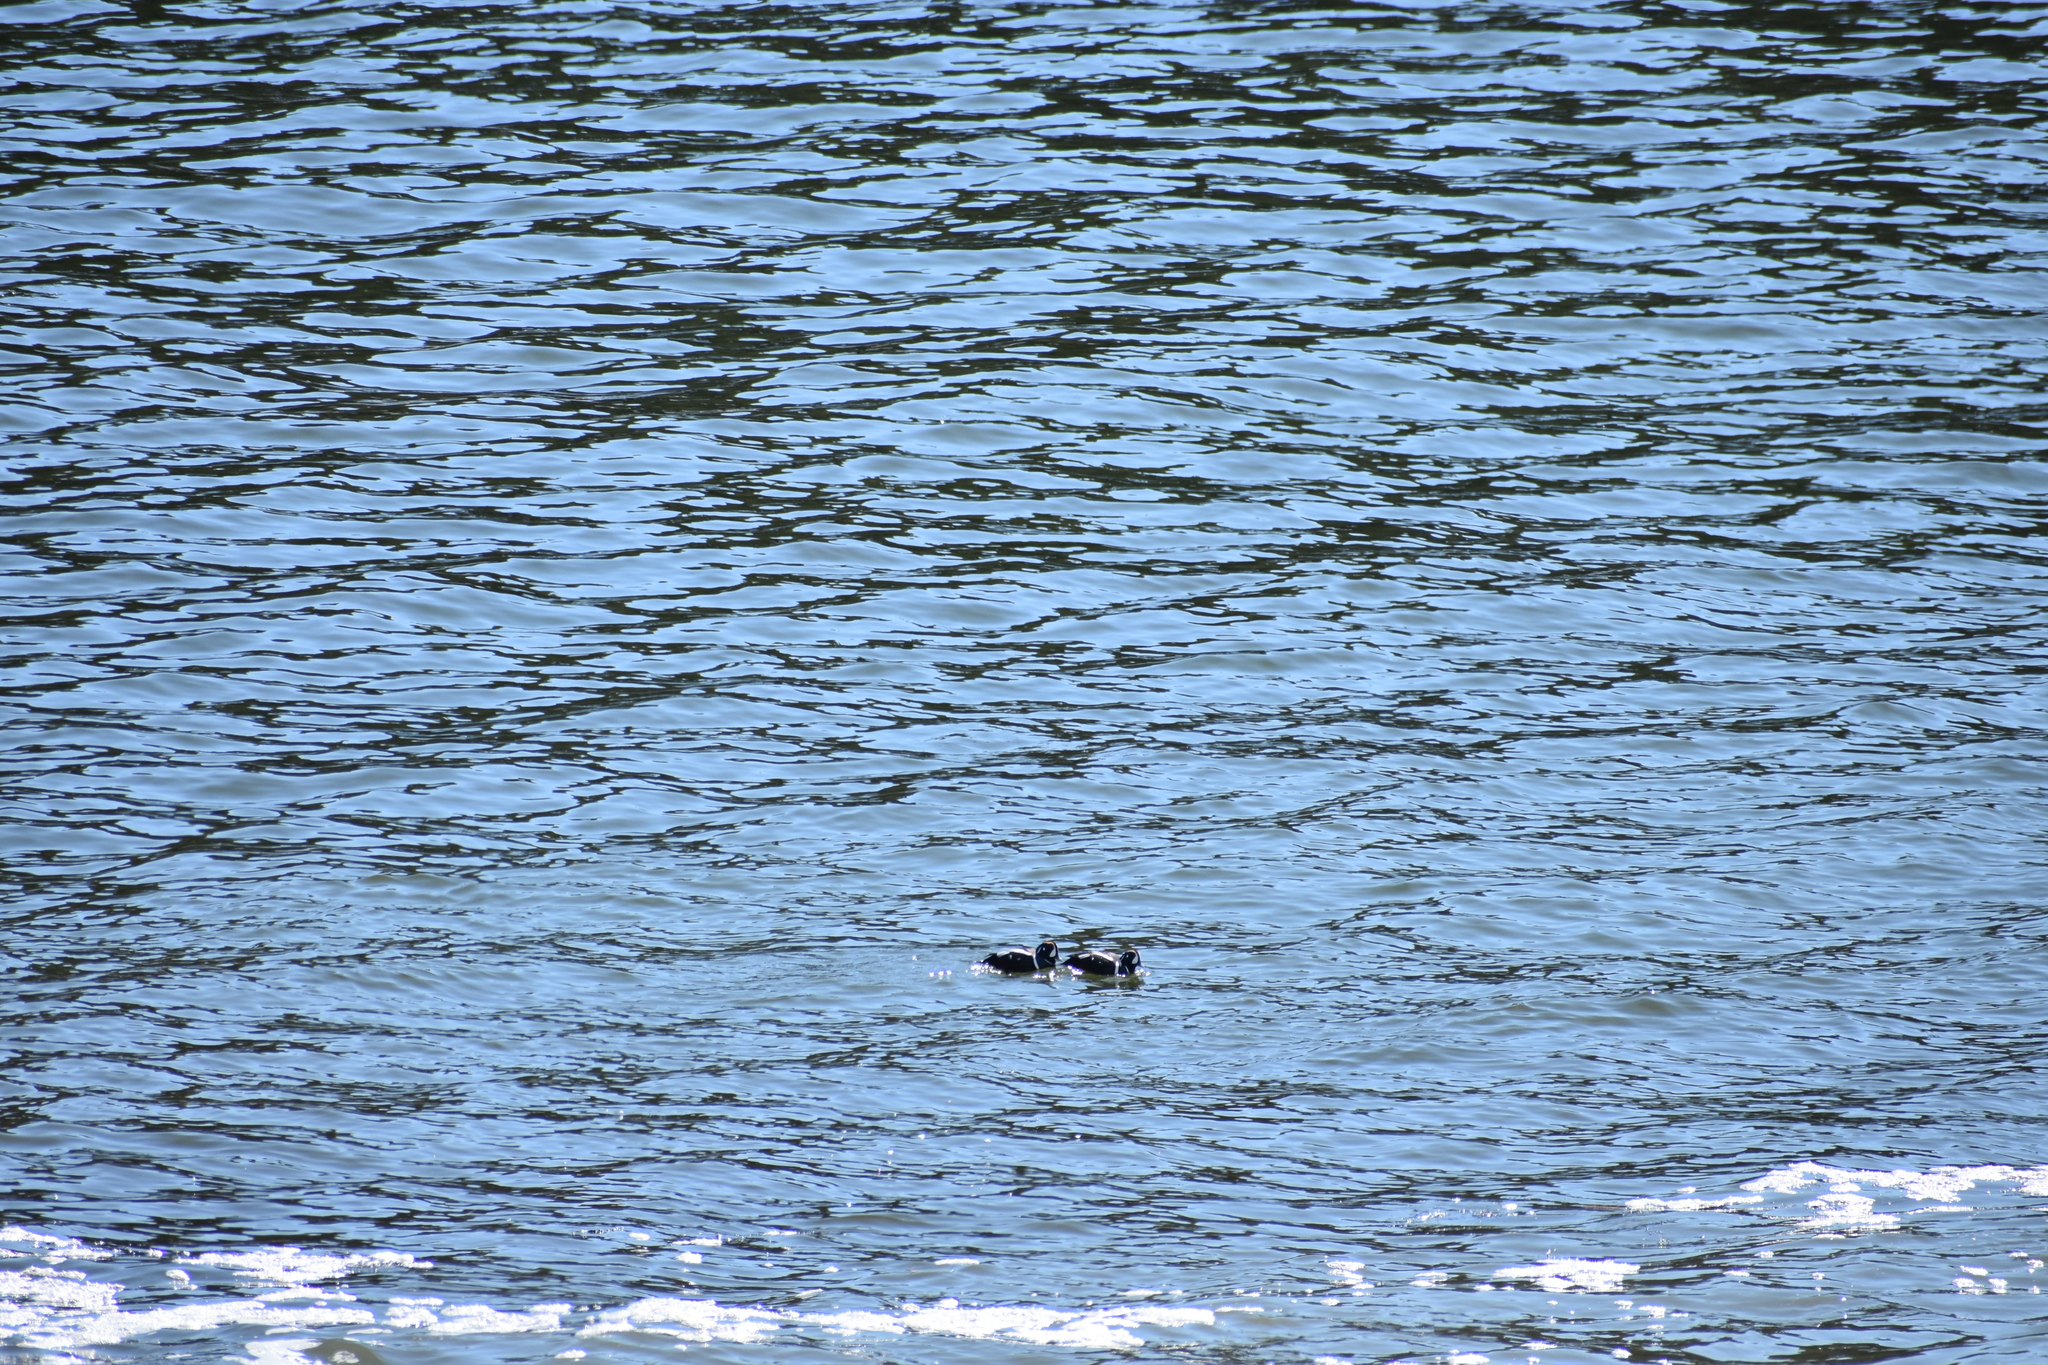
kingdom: Animalia
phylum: Chordata
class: Aves
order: Anseriformes
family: Anatidae
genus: Histrionicus
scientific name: Histrionicus histrionicus
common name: Harlequin duck
